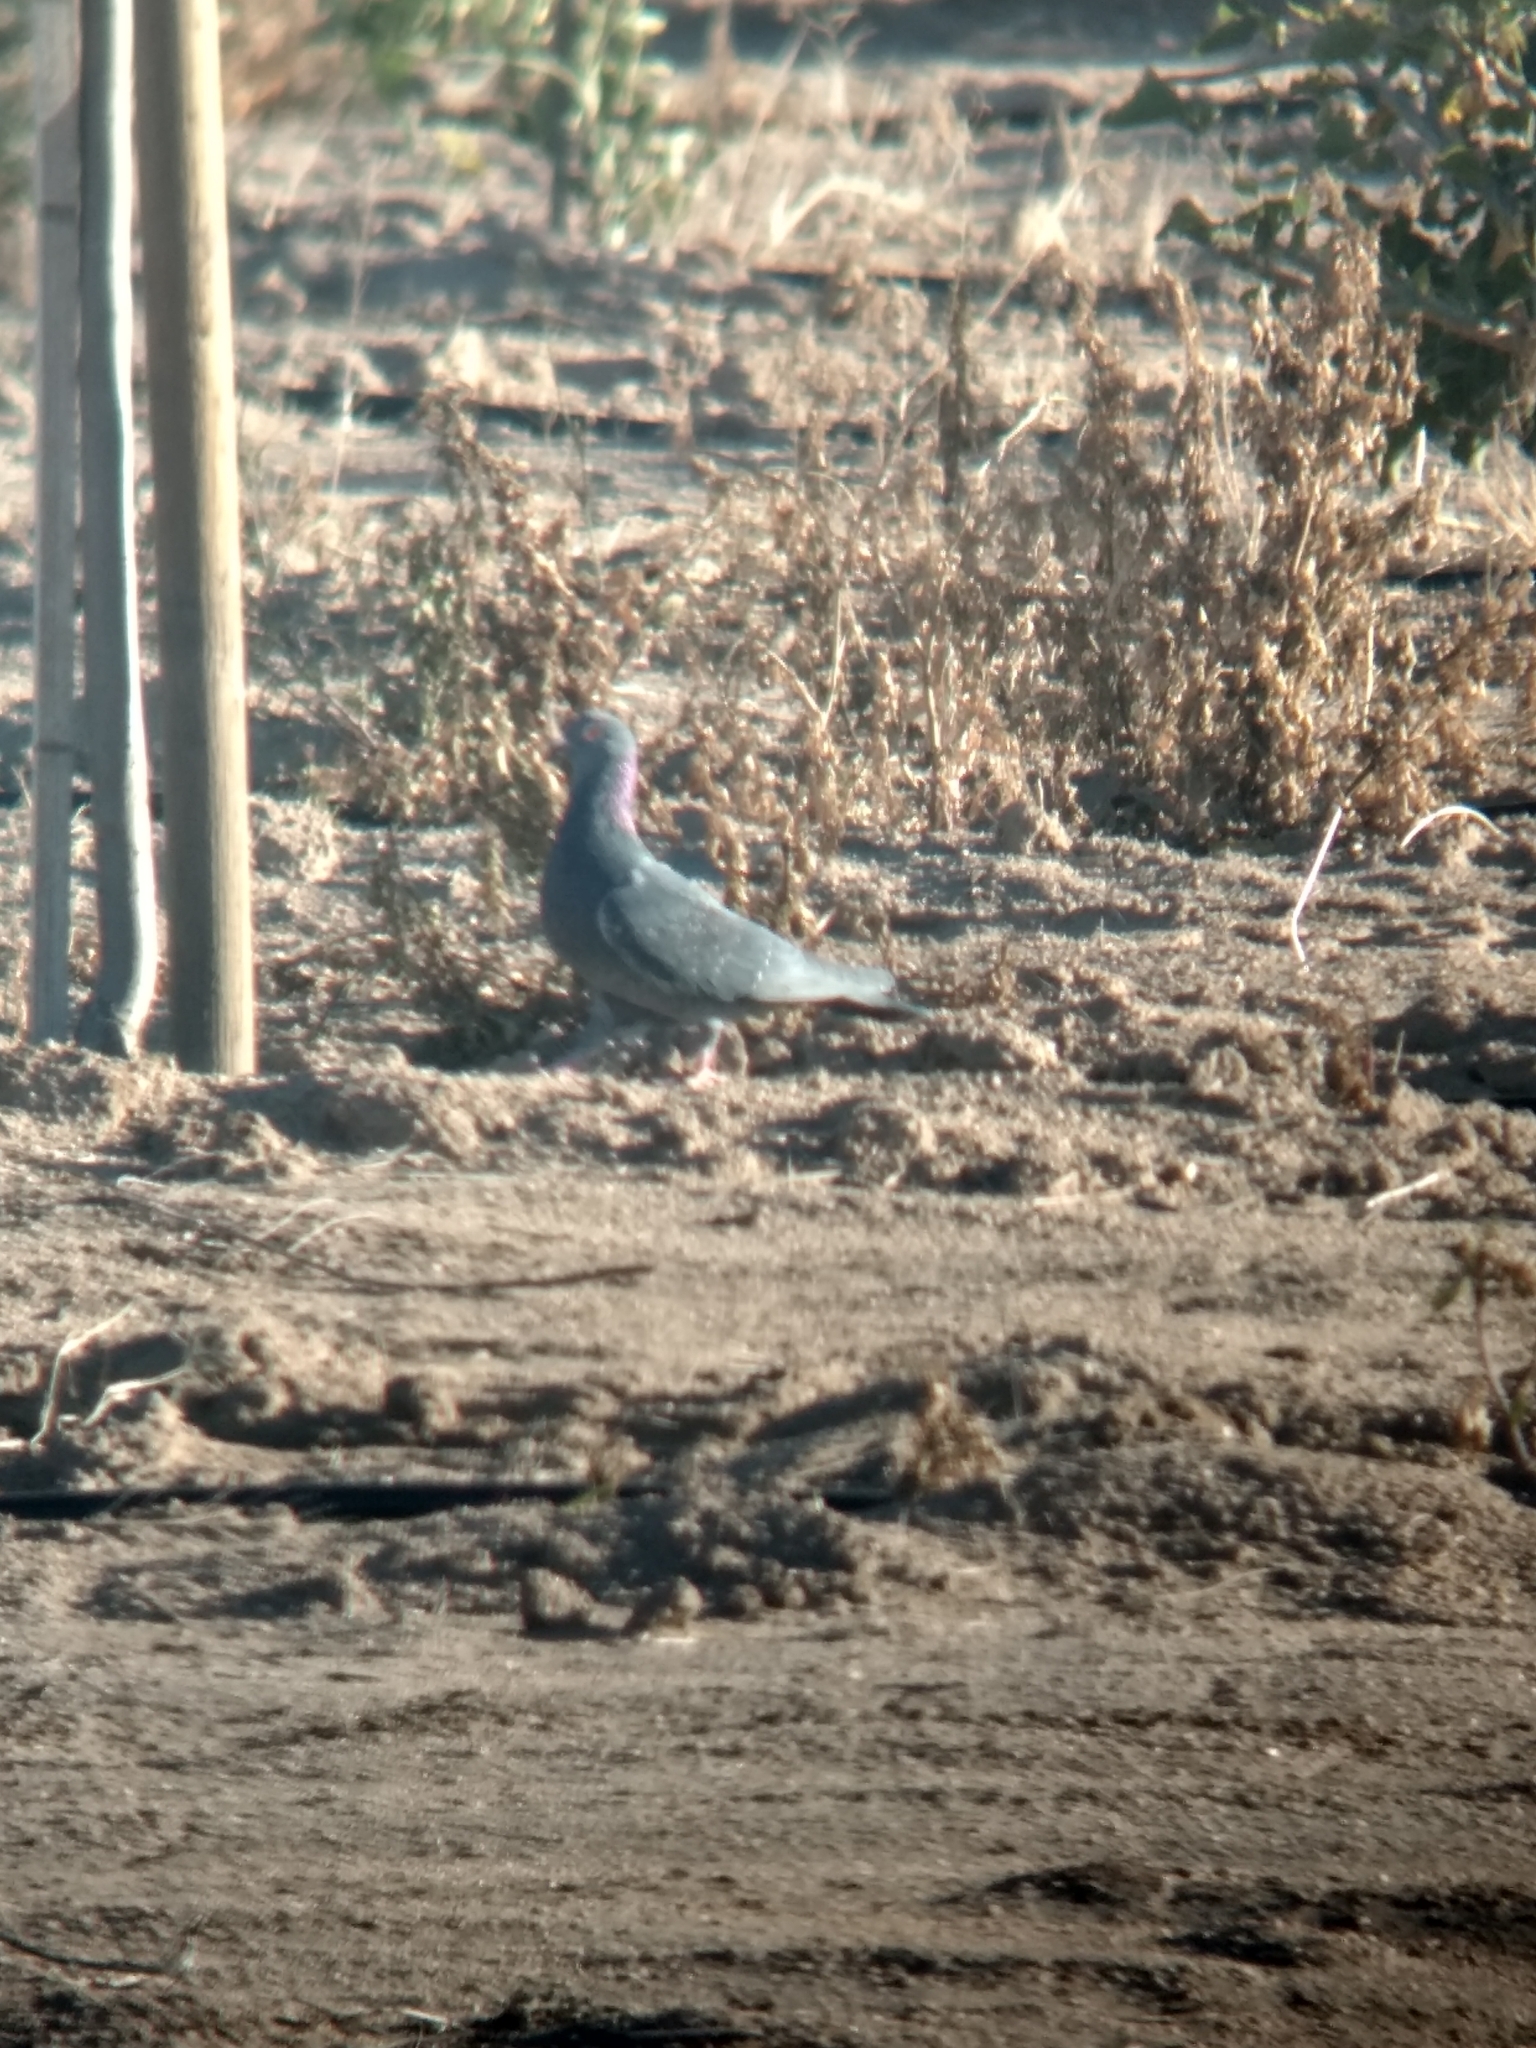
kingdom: Animalia
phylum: Chordata
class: Aves
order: Columbiformes
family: Columbidae
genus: Columba
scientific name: Columba livia
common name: Rock pigeon
